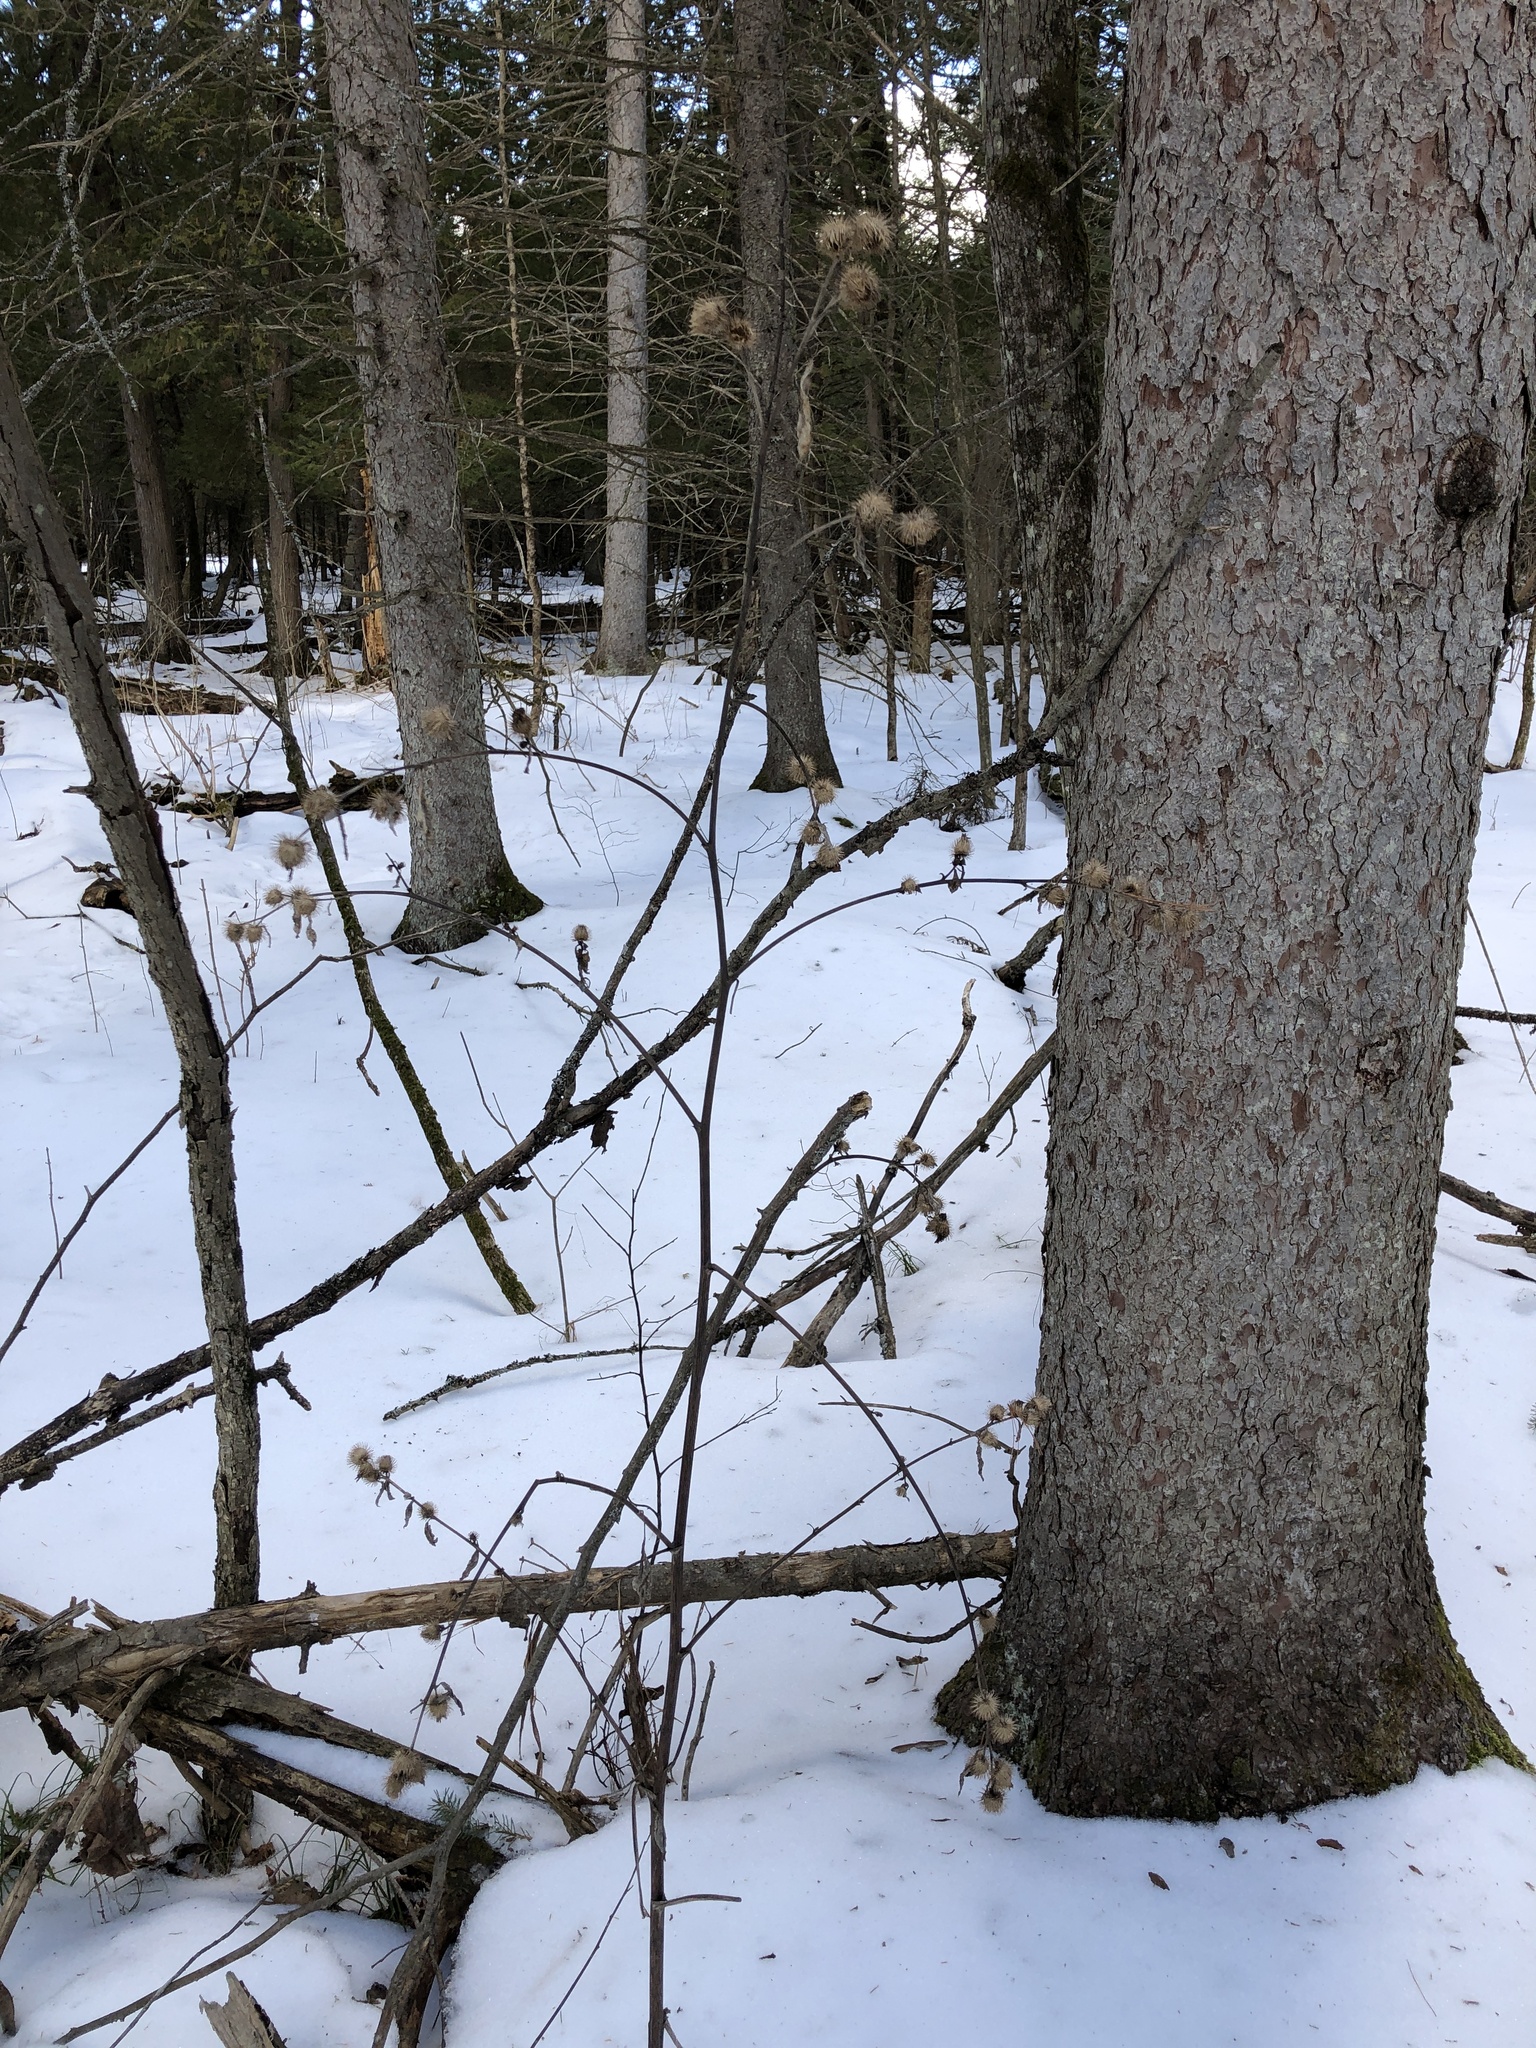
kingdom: Plantae
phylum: Tracheophyta
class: Magnoliopsida
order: Asterales
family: Asteraceae
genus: Arctium
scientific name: Arctium minus
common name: Lesser burdock
